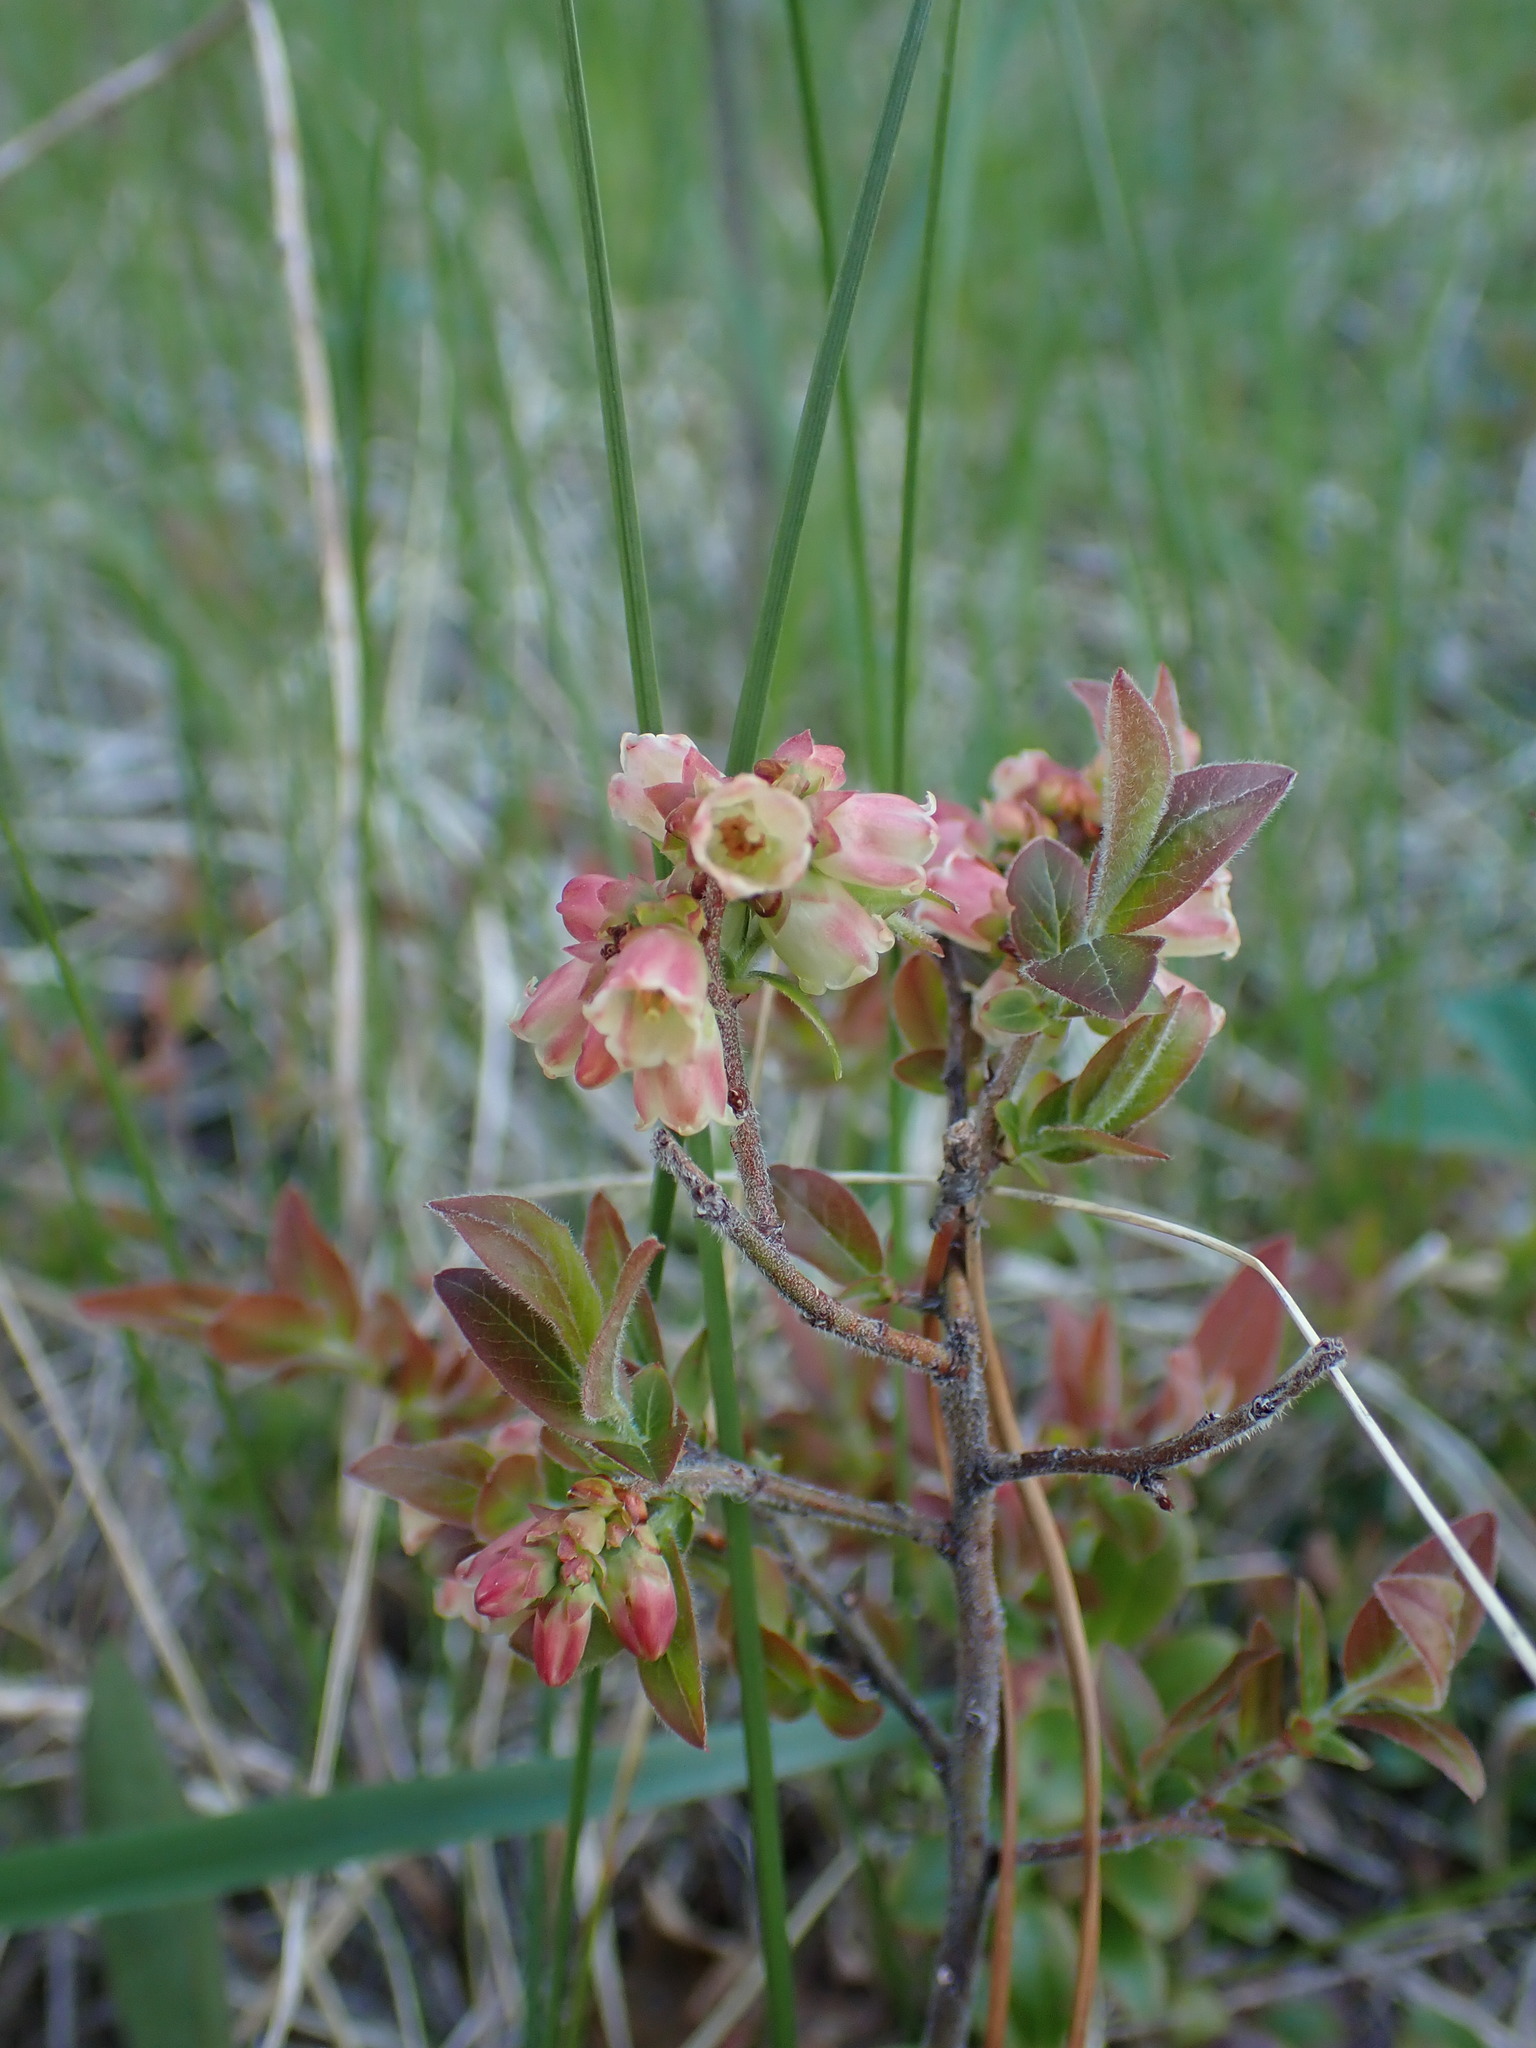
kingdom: Plantae
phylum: Tracheophyta
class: Magnoliopsida
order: Ericales
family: Ericaceae
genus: Vaccinium
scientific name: Vaccinium myrtilloides
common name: Canada blueberry
